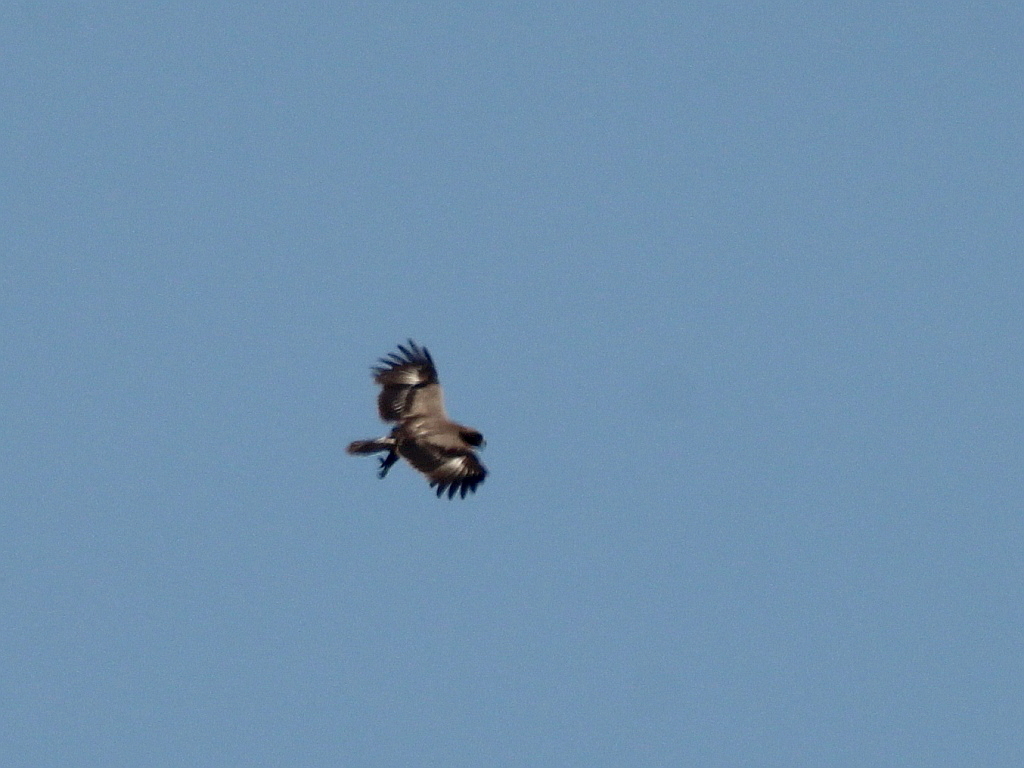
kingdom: Animalia
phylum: Chordata
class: Aves
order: Accipitriformes
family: Accipitridae
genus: Aquila
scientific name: Aquila pomarina
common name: Lesser spotted eagle
